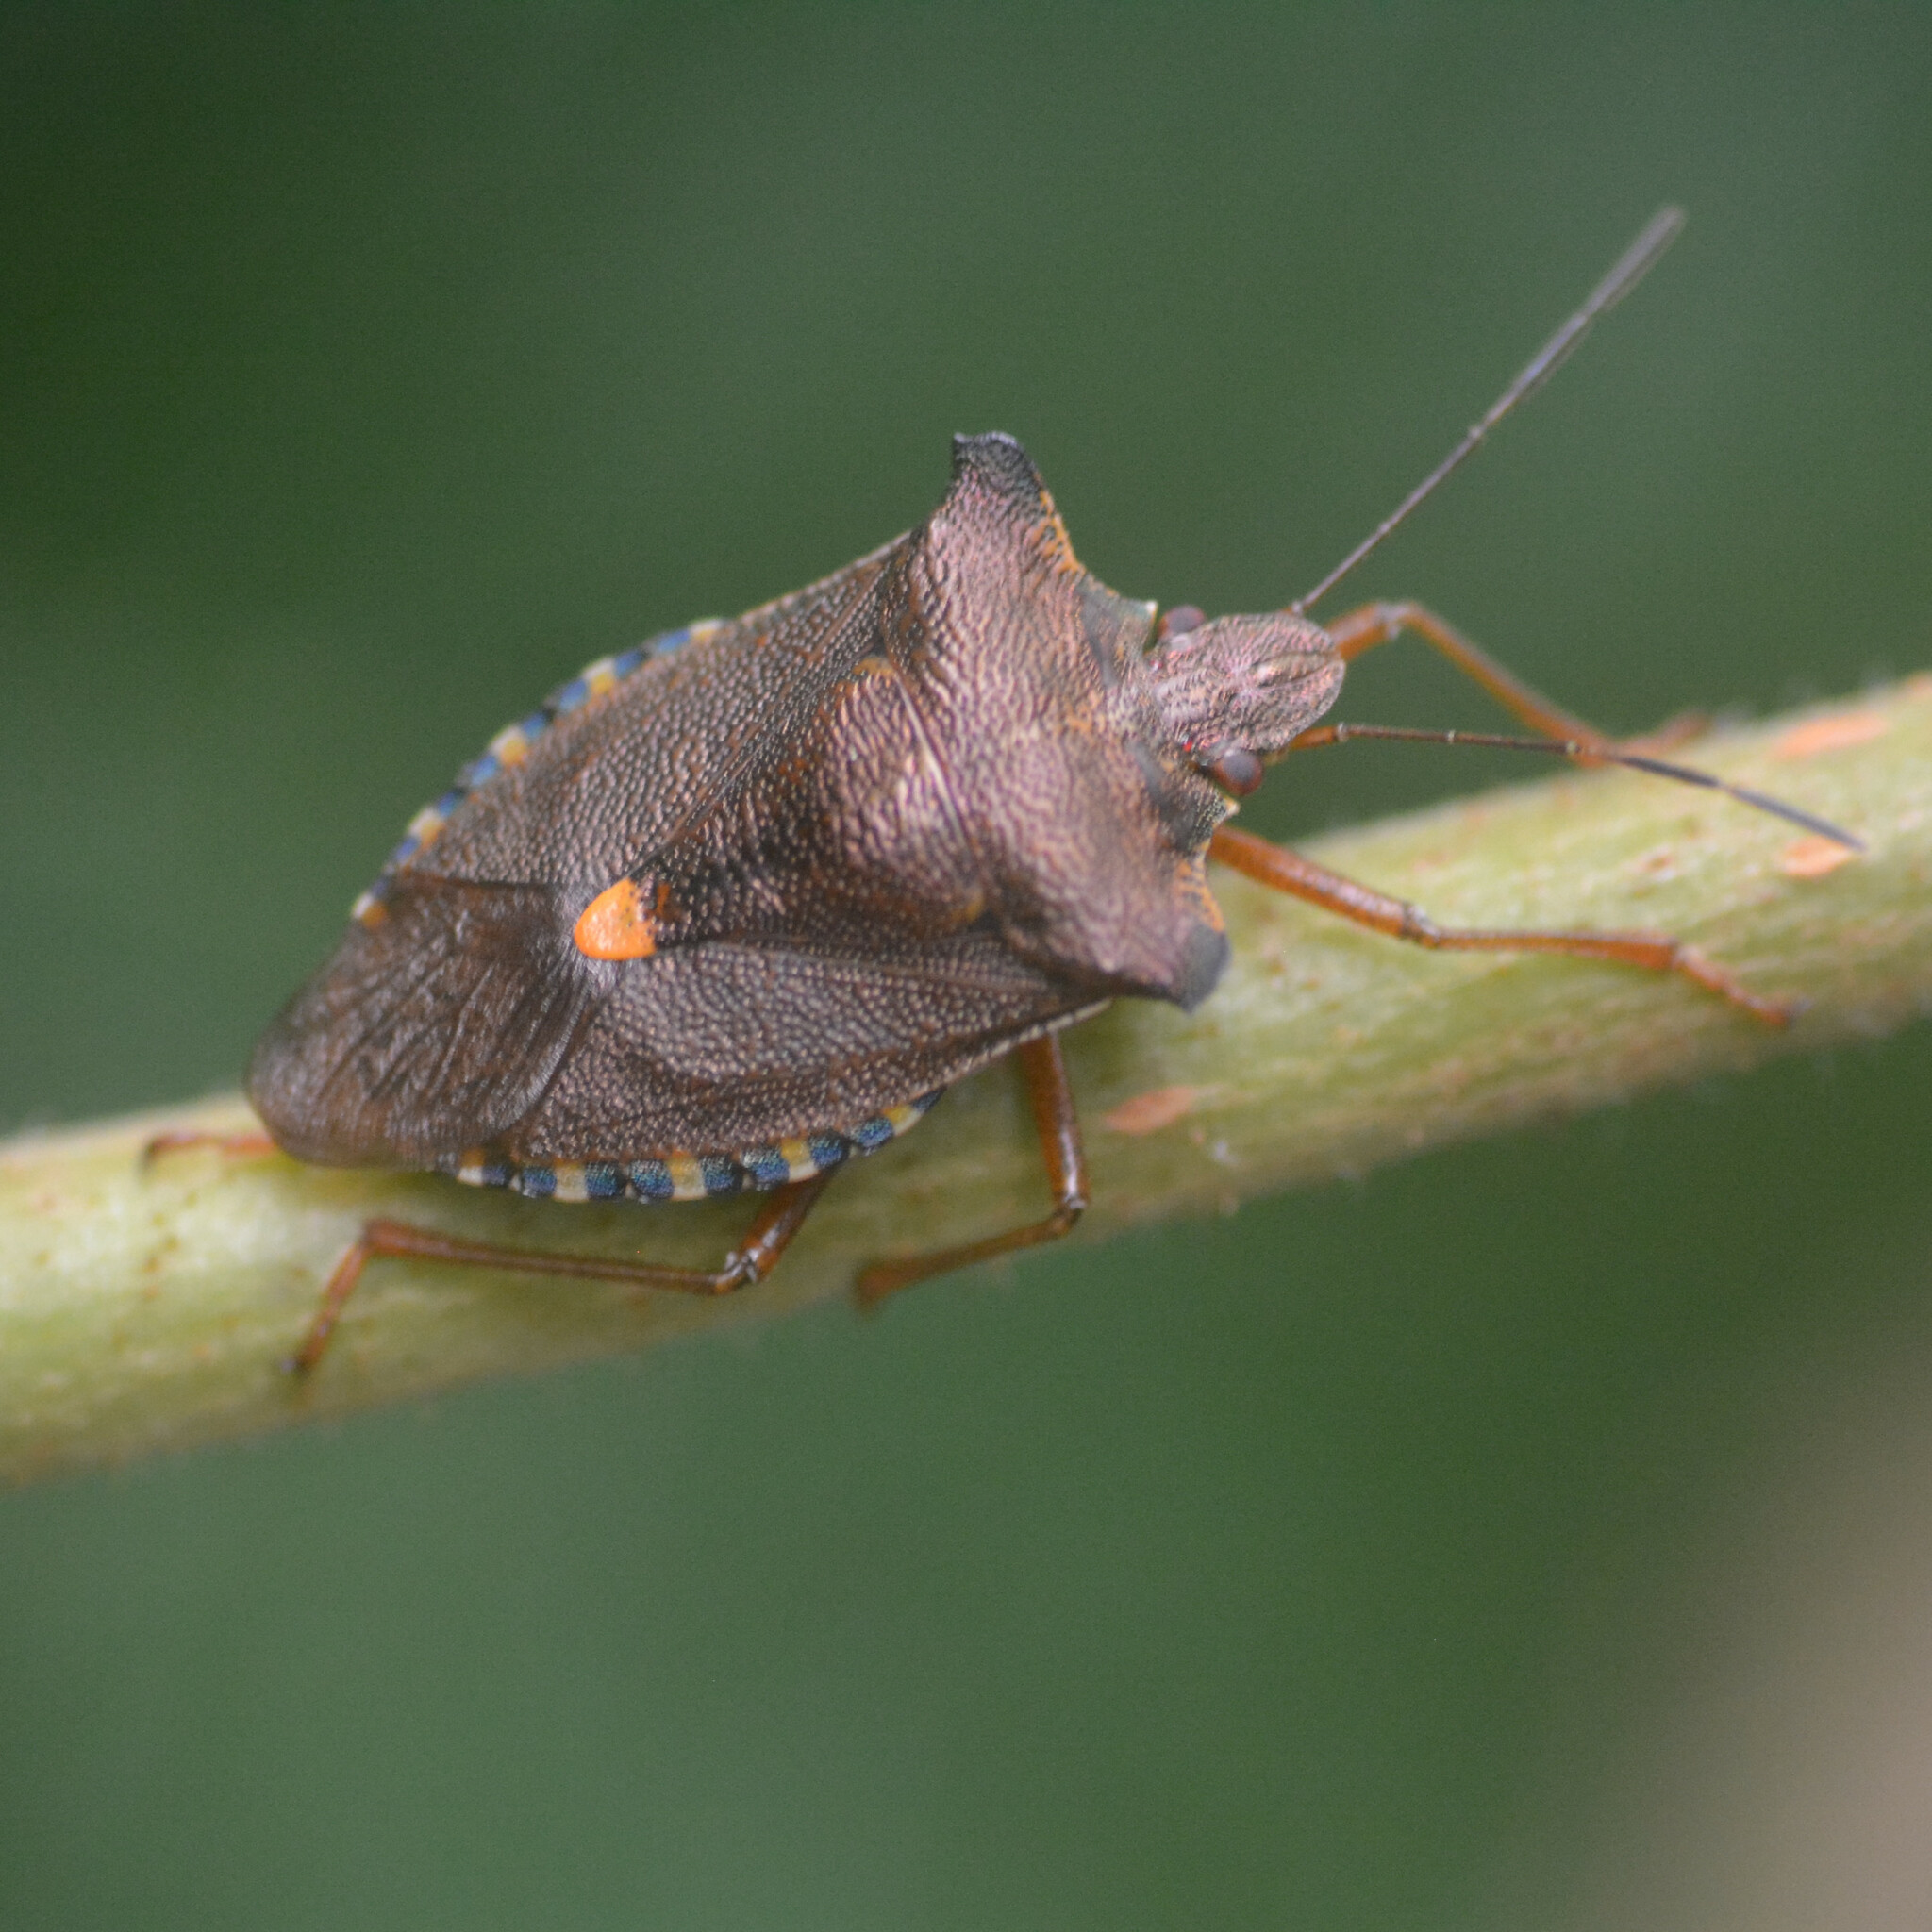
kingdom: Animalia
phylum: Arthropoda
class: Insecta
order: Hemiptera
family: Pentatomidae
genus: Pentatoma
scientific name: Pentatoma rufipes
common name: Forest bug
